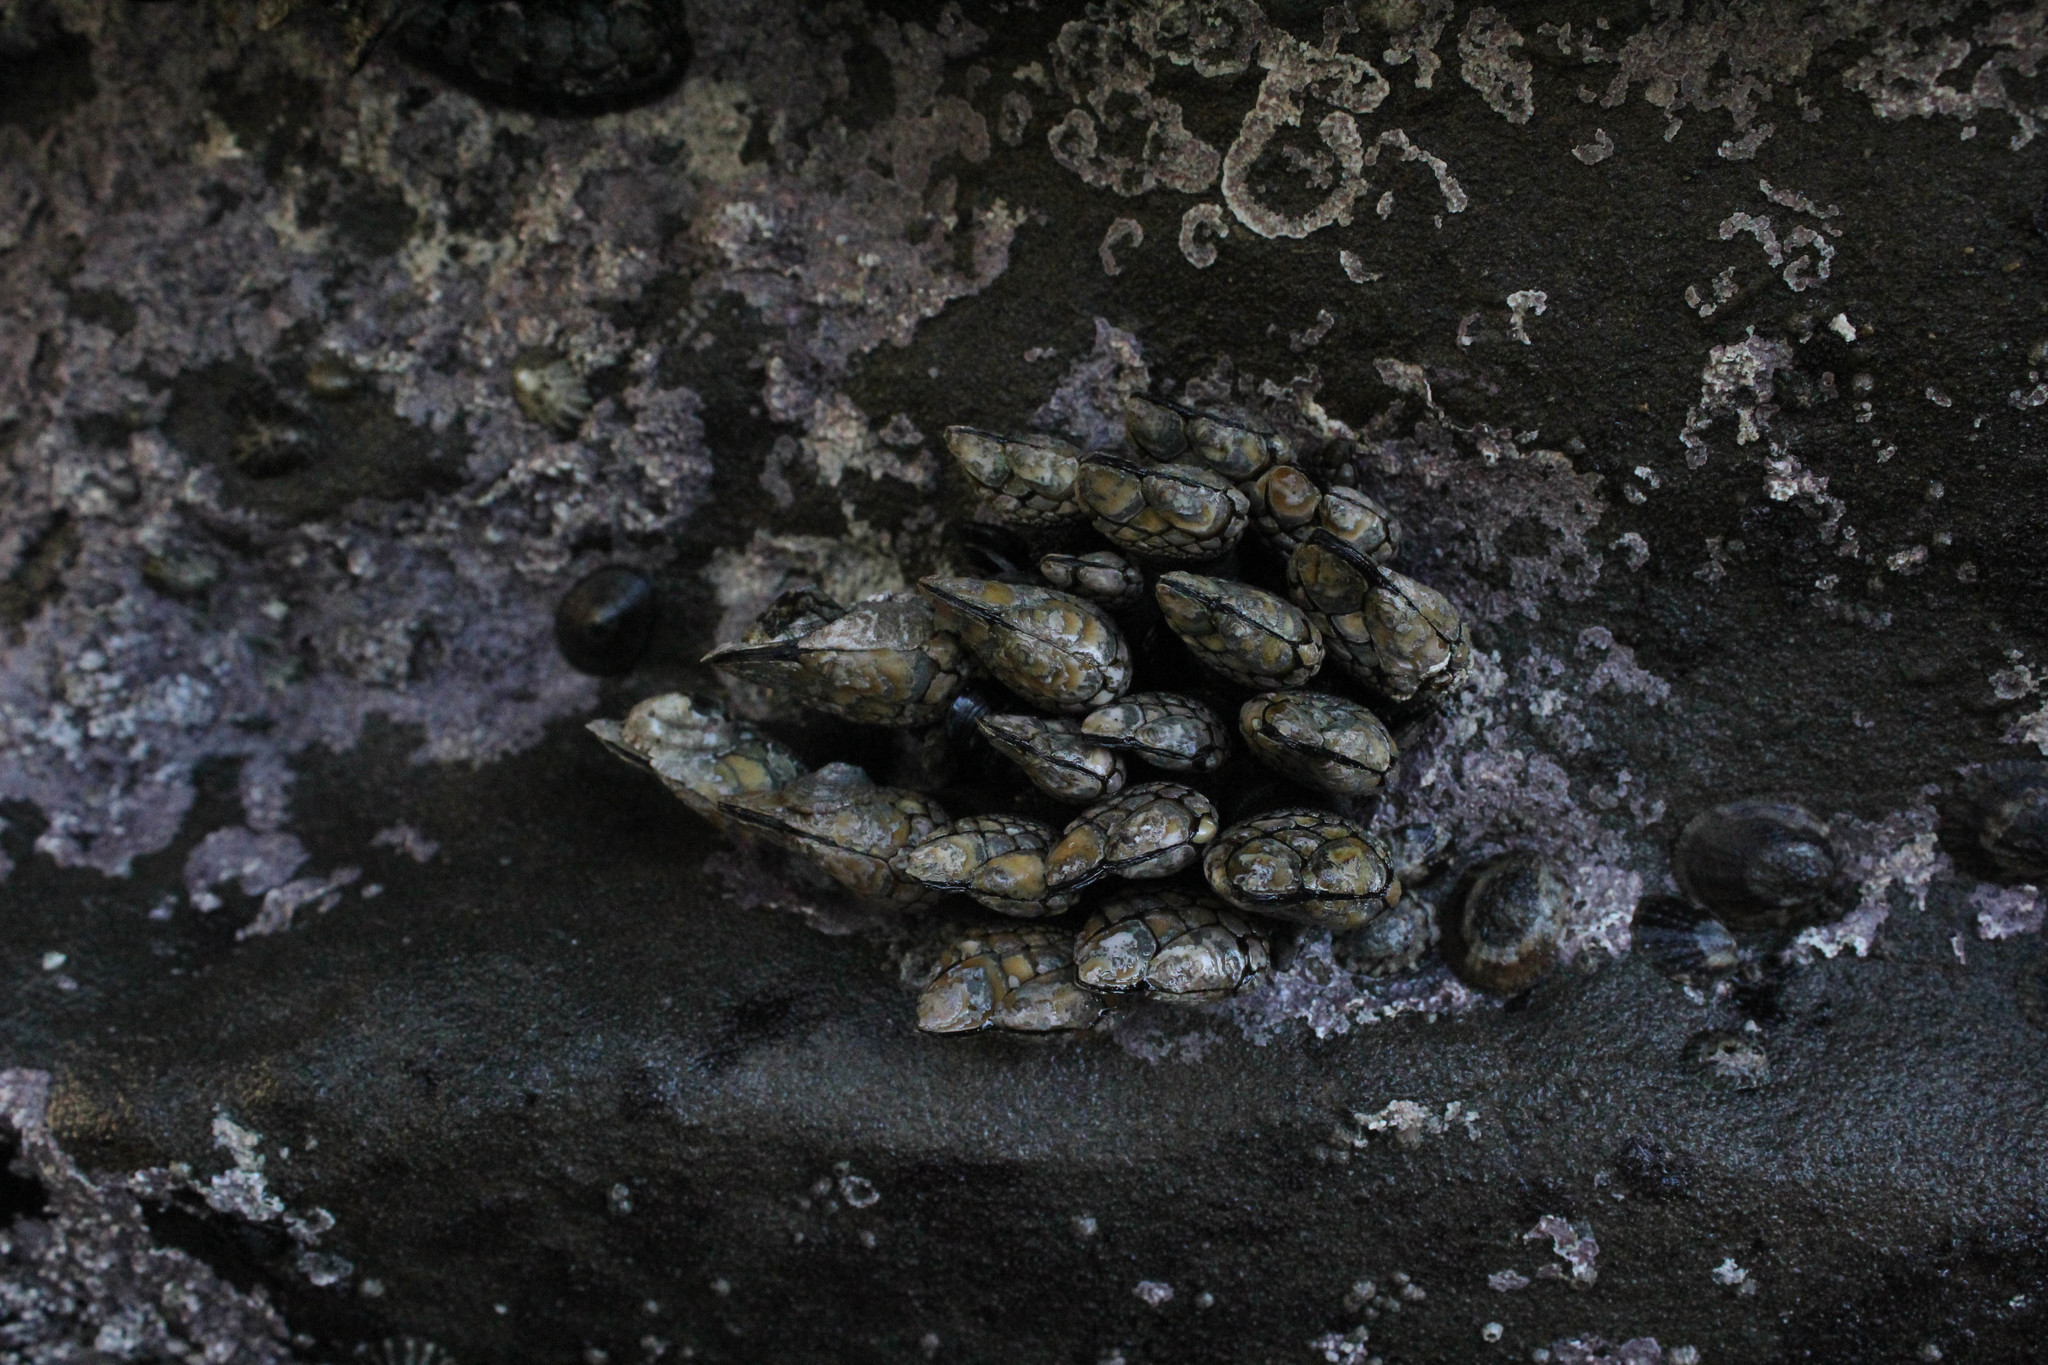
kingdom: Animalia
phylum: Arthropoda
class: Maxillopoda
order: Pedunculata
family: Pollicipedidae
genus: Pollicipes
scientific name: Pollicipes polymerus
